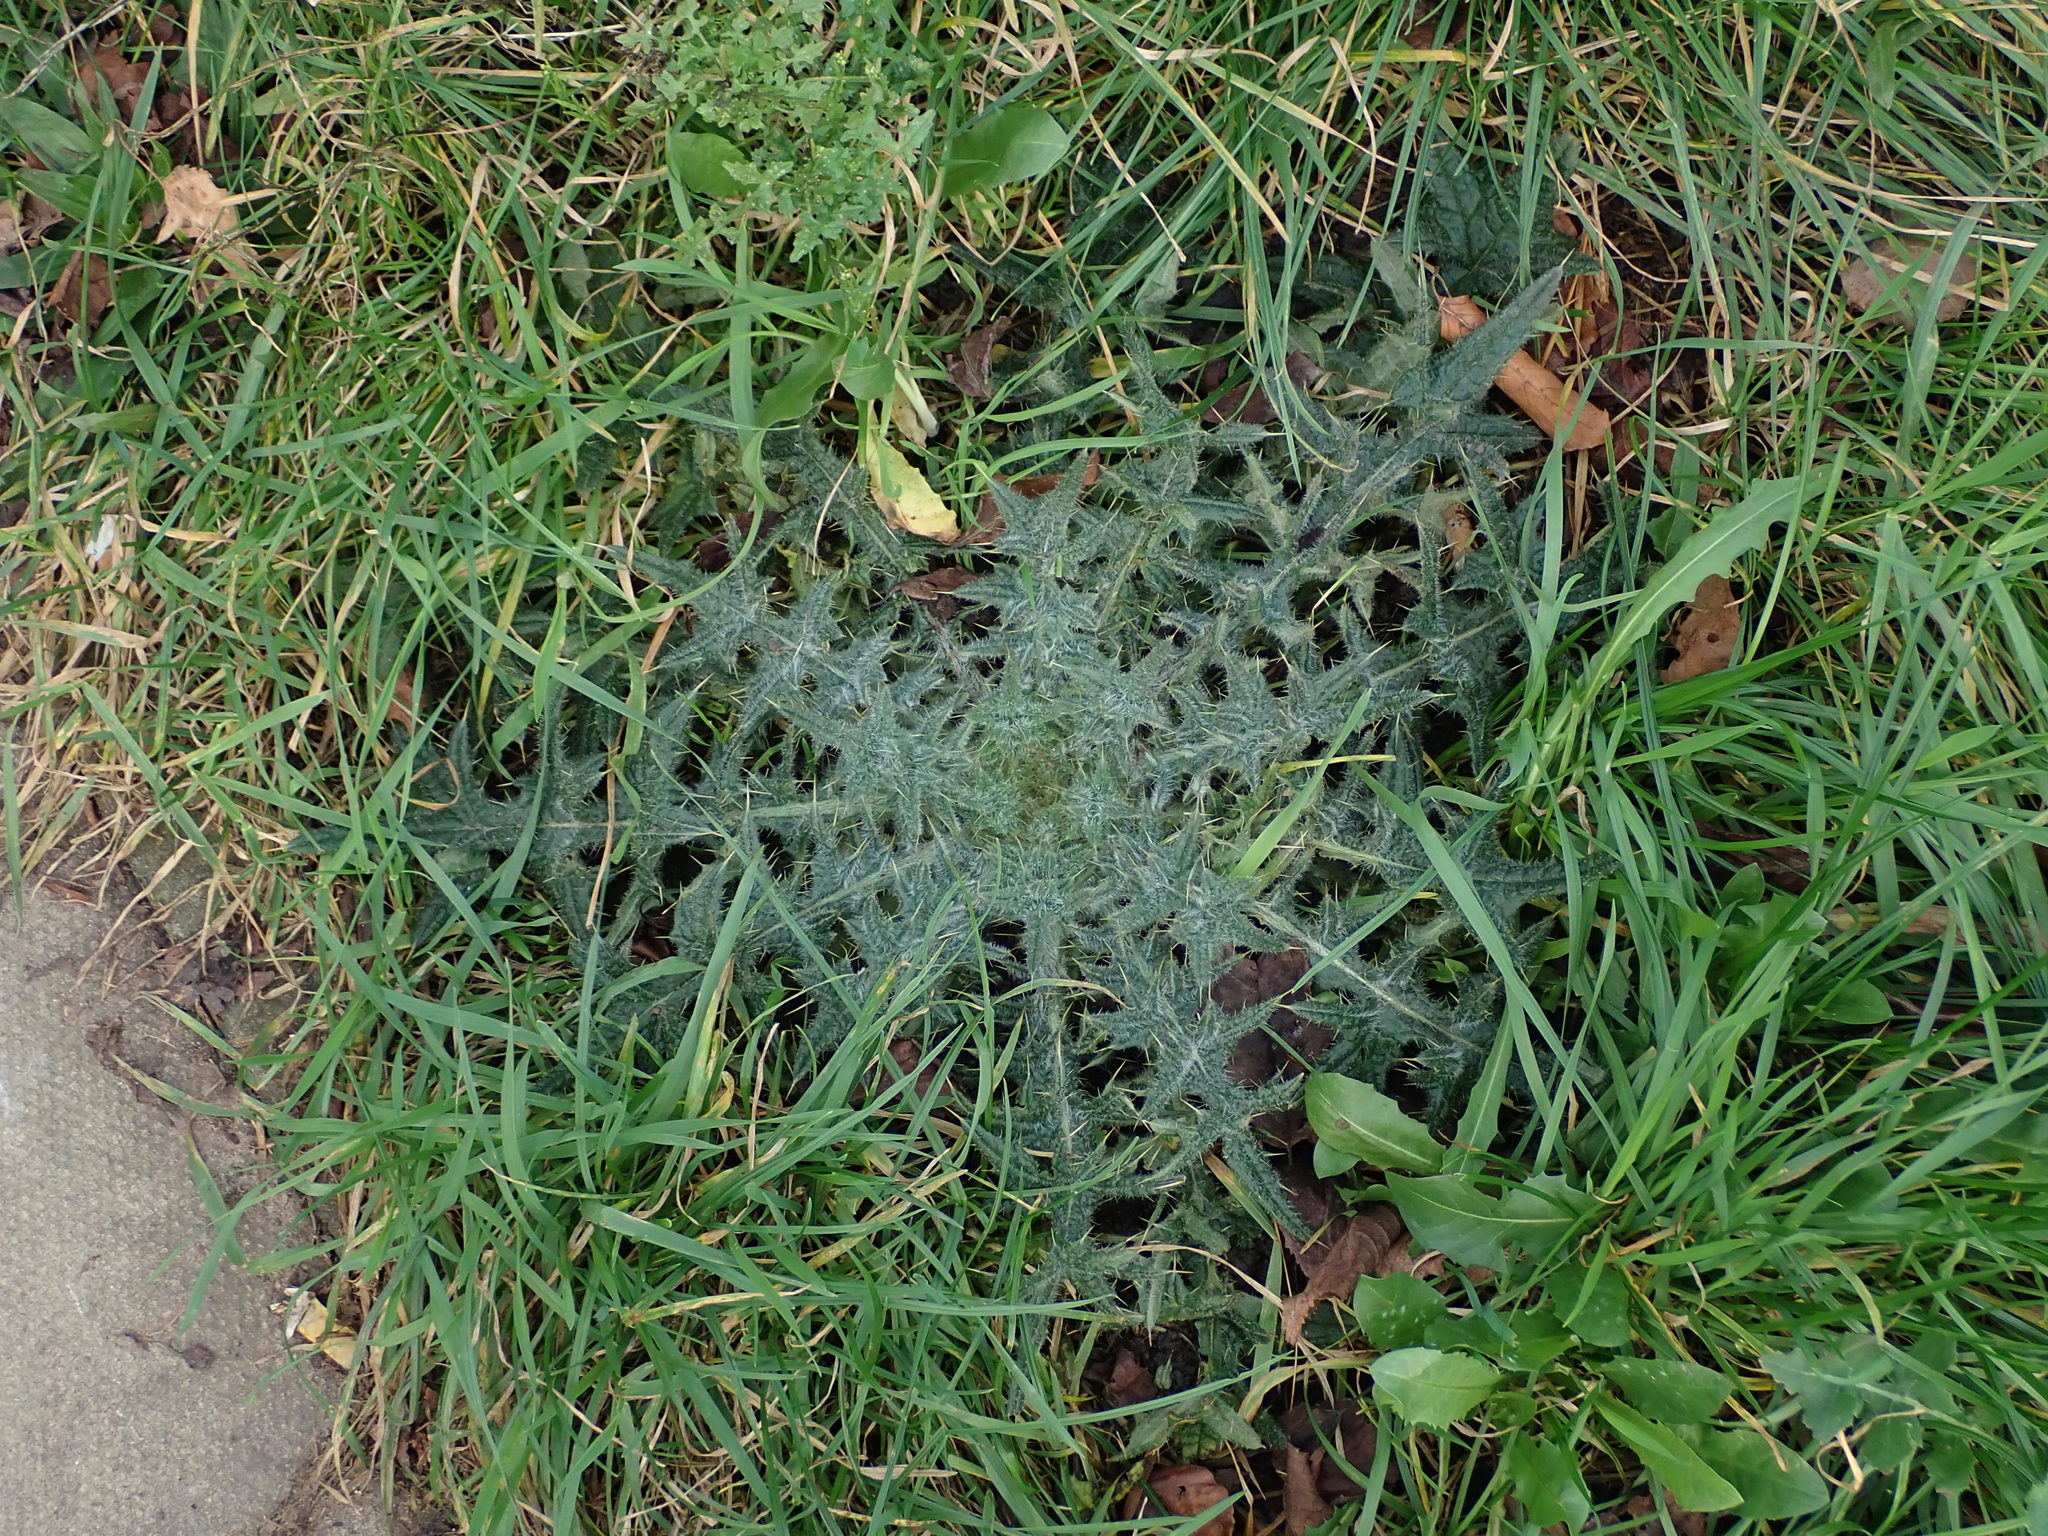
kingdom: Plantae
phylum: Tracheophyta
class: Magnoliopsida
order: Asterales
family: Asteraceae
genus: Cirsium
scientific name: Cirsium vulgare
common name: Bull thistle
